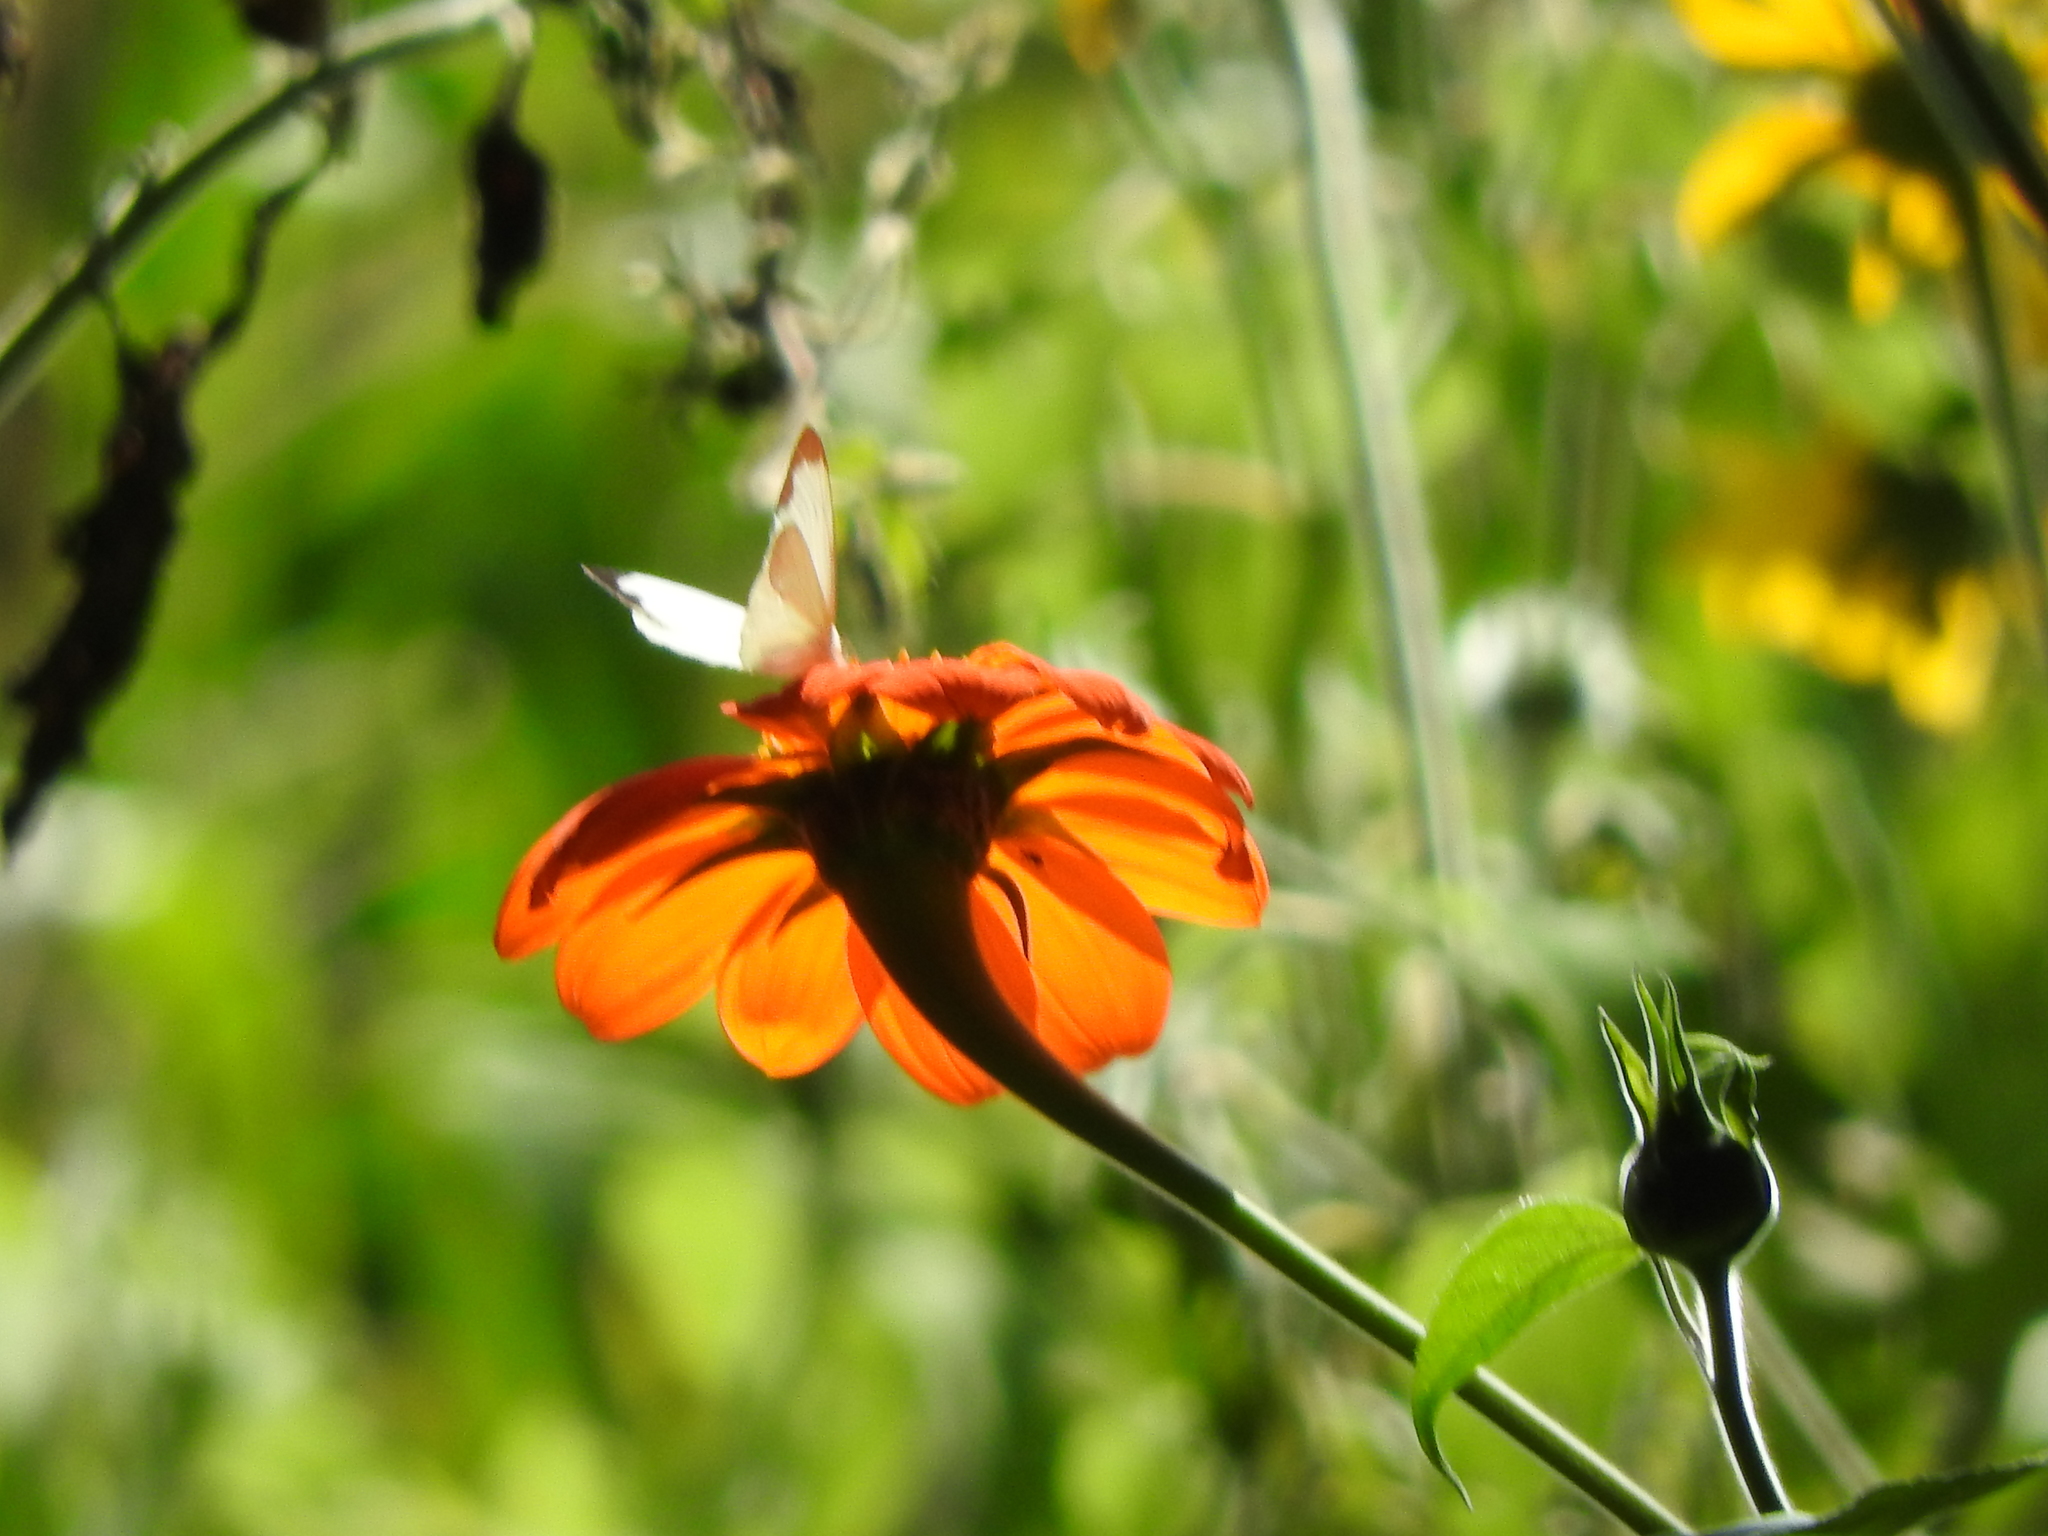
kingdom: Animalia
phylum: Arthropoda
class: Insecta
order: Lepidoptera
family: Pieridae
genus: Leptophobia
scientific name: Leptophobia aripa
